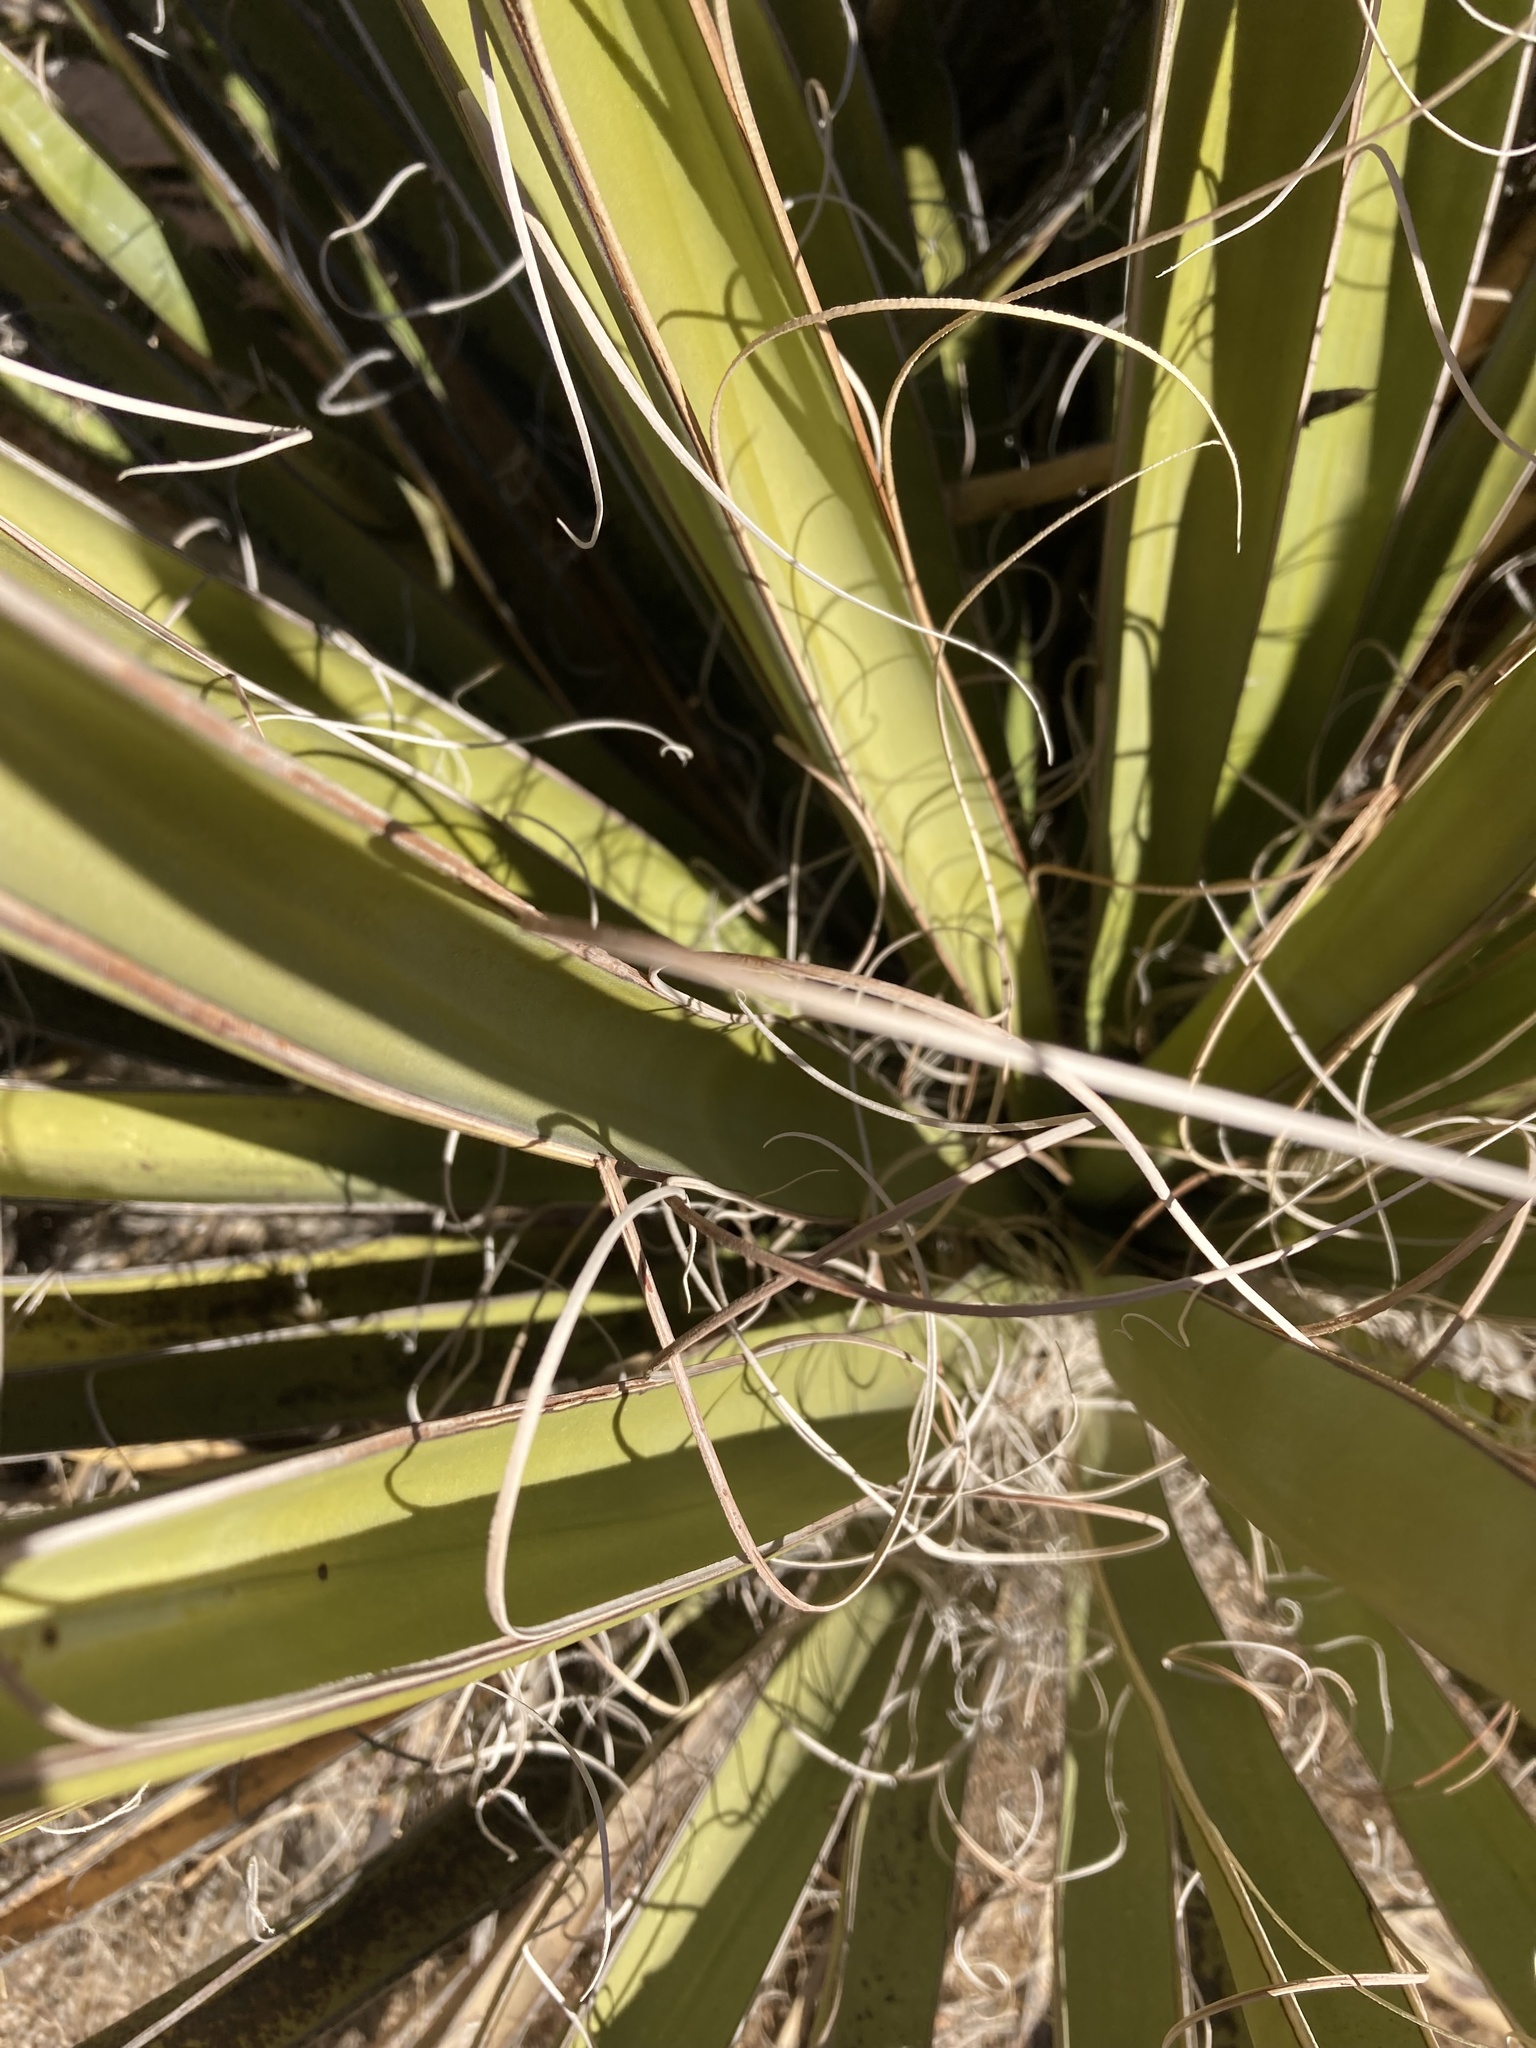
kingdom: Plantae
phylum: Tracheophyta
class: Liliopsida
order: Asparagales
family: Asparagaceae
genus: Yucca
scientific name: Yucca schidigera
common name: Mojave yucca
